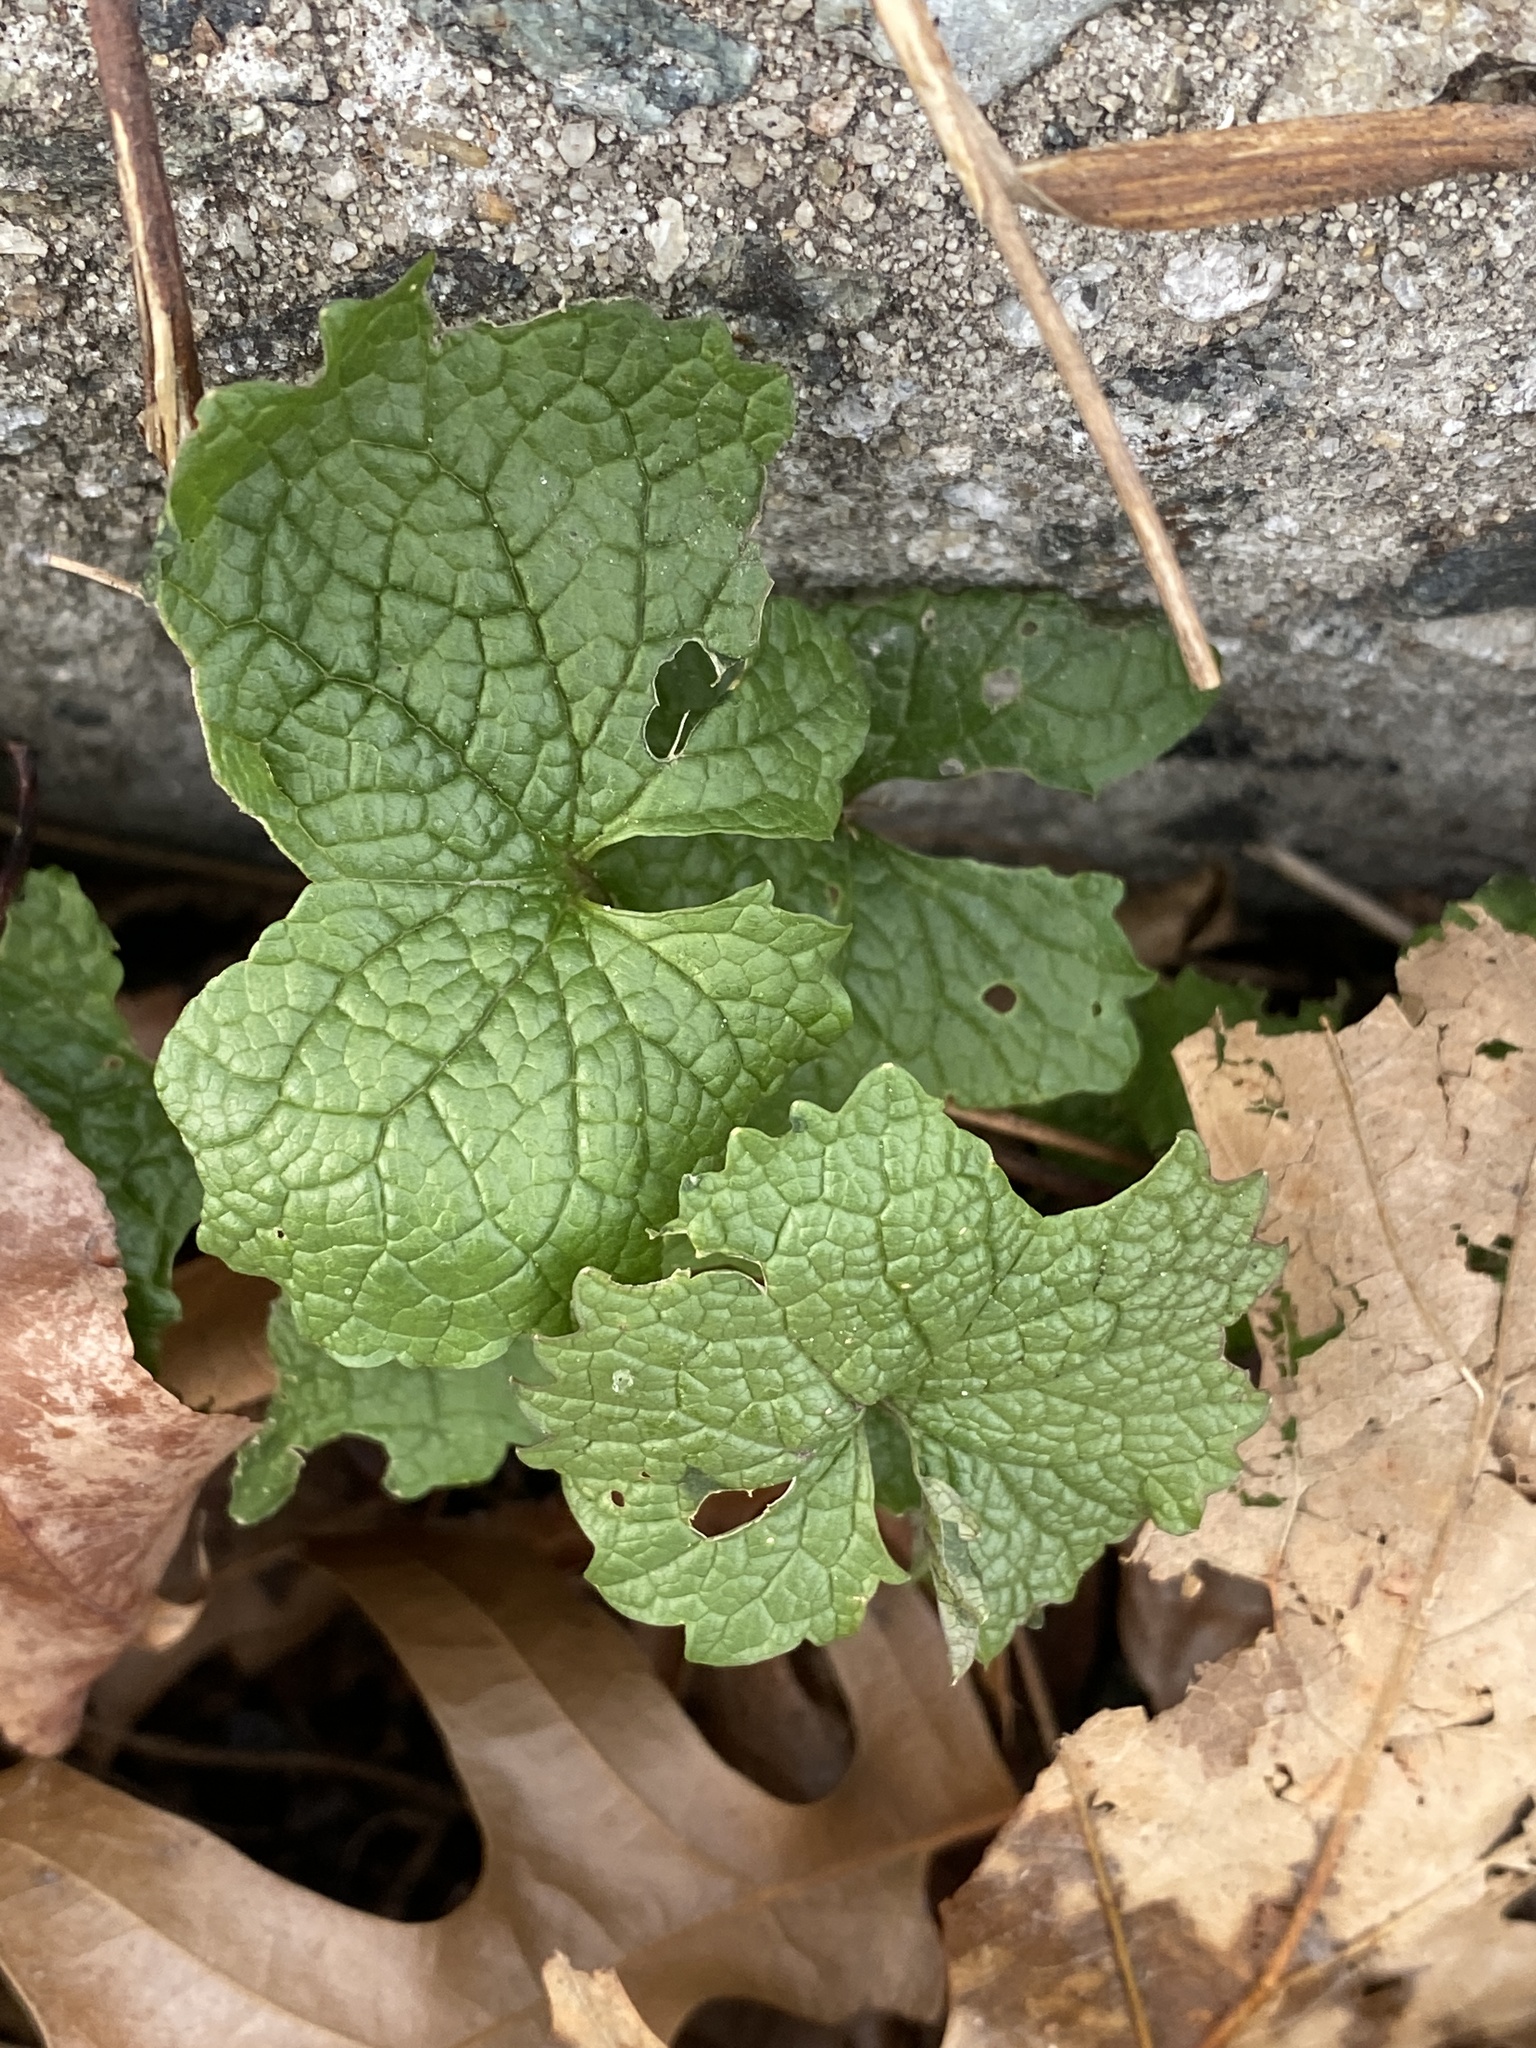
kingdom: Plantae
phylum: Tracheophyta
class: Magnoliopsida
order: Brassicales
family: Brassicaceae
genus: Alliaria
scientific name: Alliaria petiolata
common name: Garlic mustard
